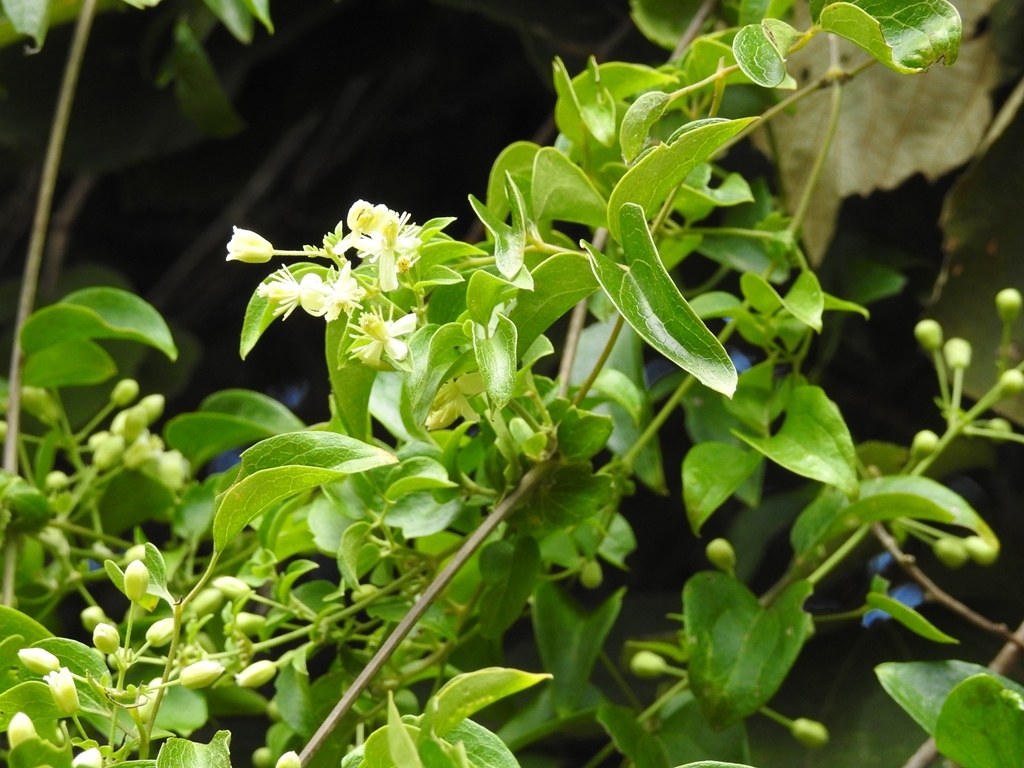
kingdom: Plantae
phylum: Tracheophyta
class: Magnoliopsida
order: Ranunculales
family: Ranunculaceae
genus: Clematis
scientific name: Clematis dioica
